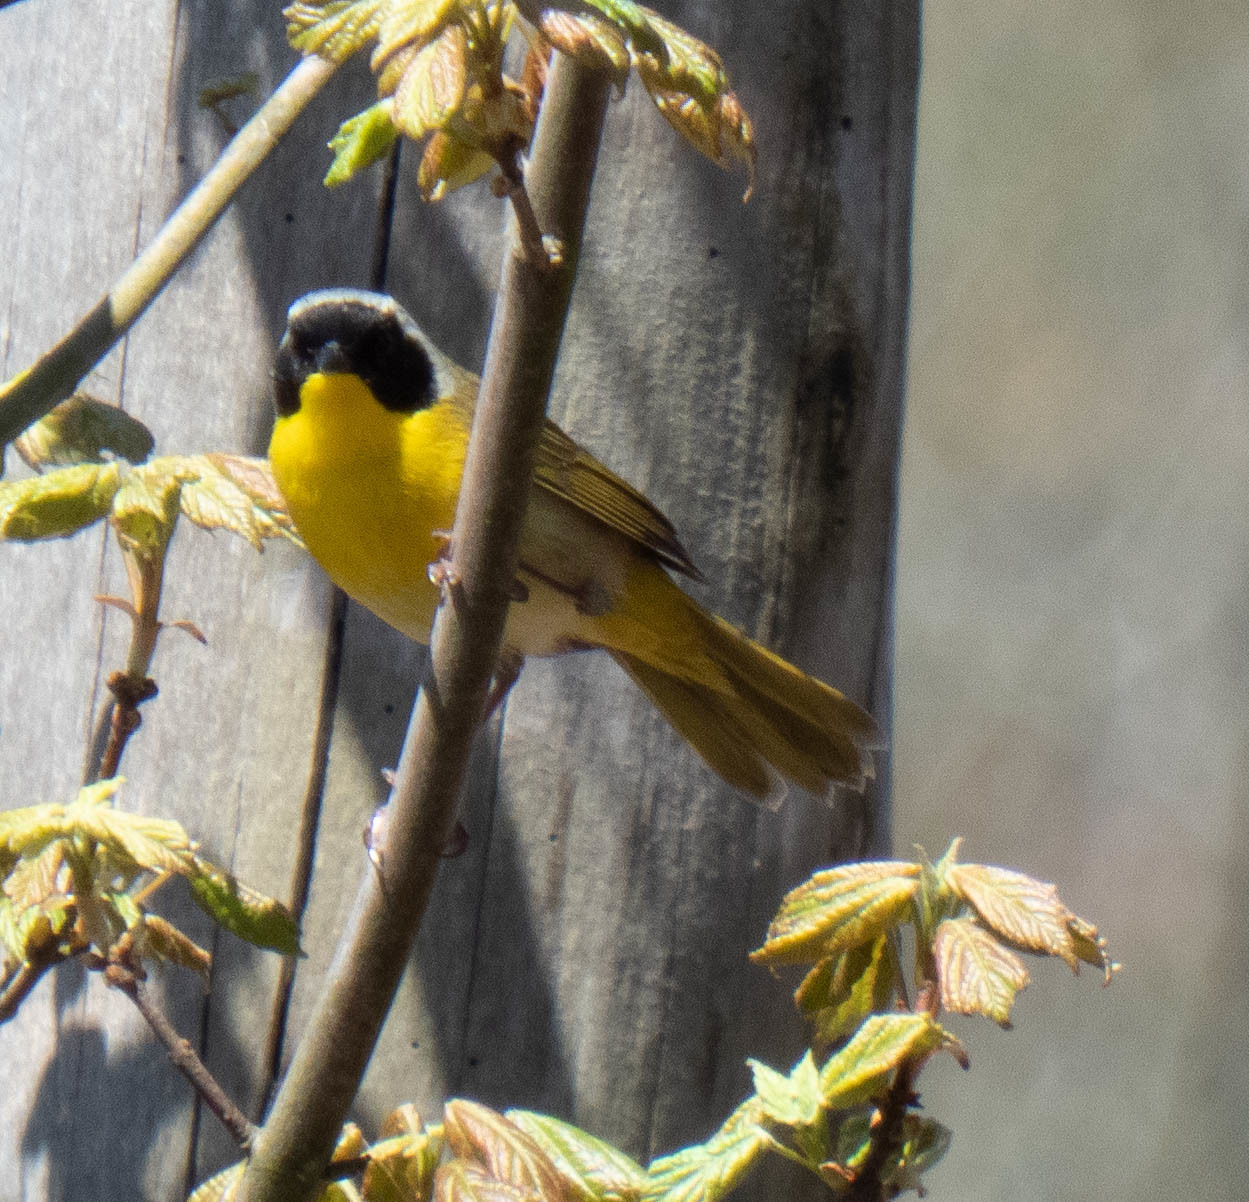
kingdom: Animalia
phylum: Chordata
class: Aves
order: Passeriformes
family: Parulidae
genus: Geothlypis
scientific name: Geothlypis trichas
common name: Common yellowthroat
